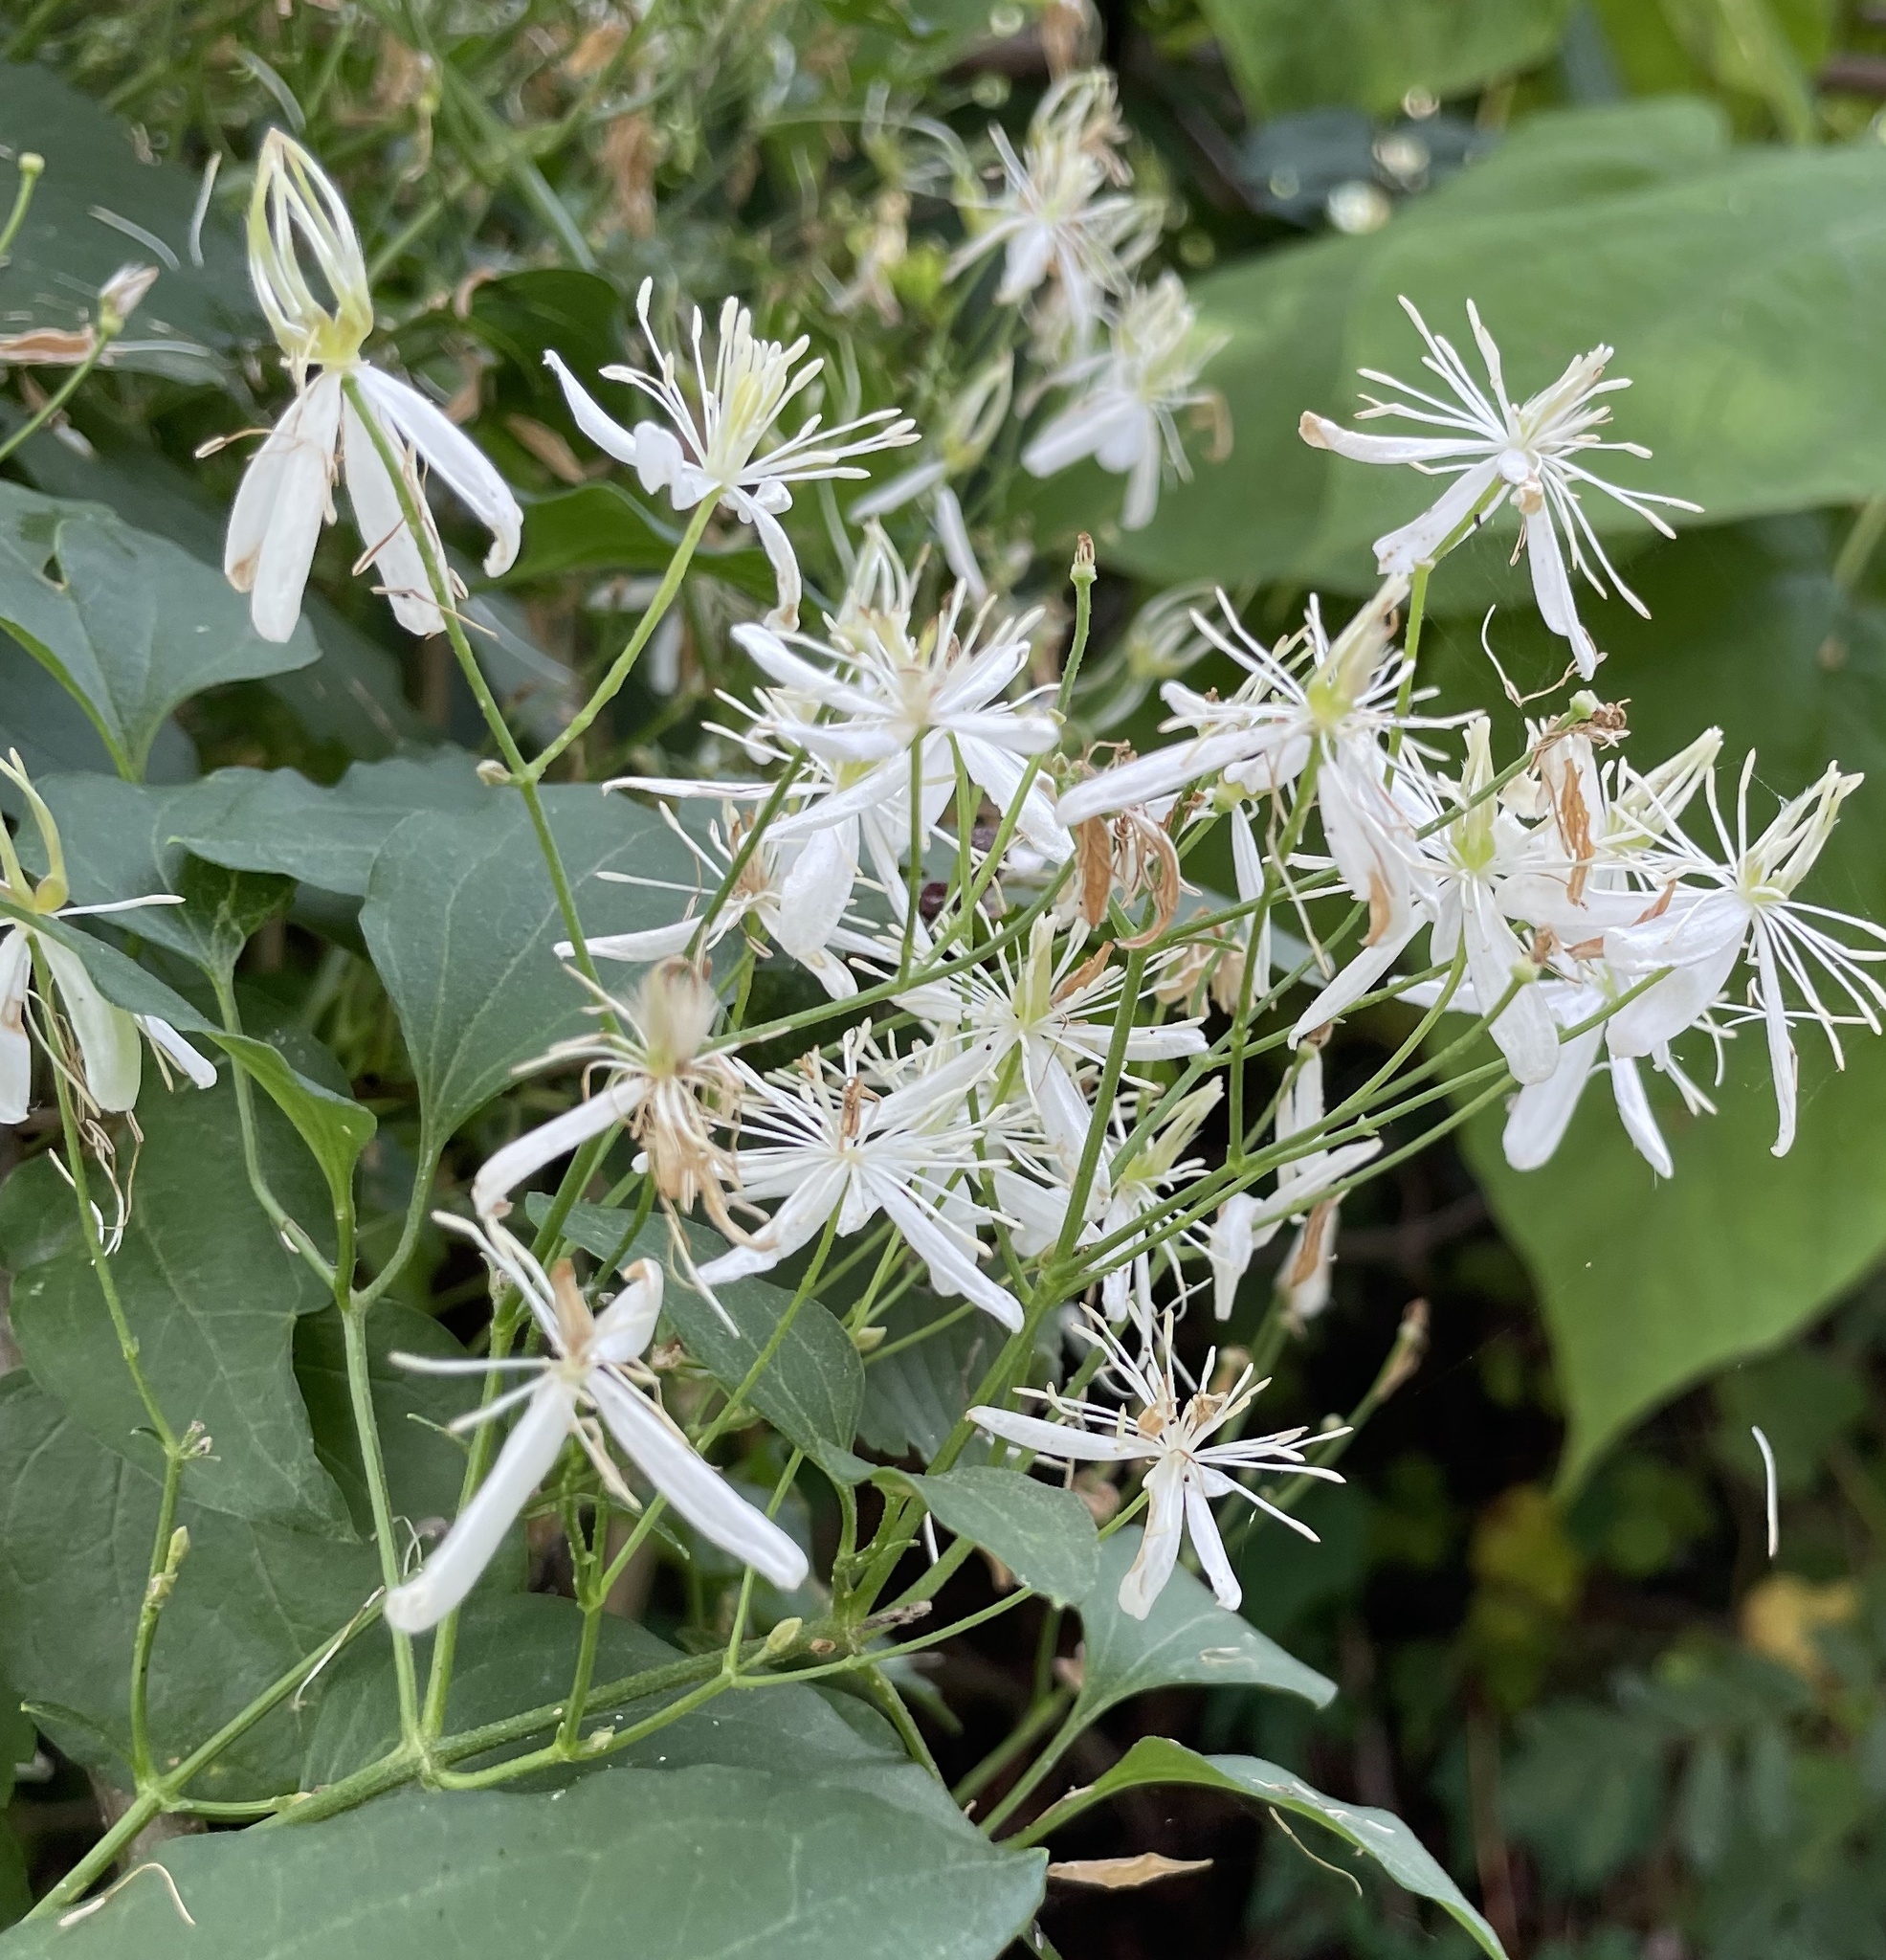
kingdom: Plantae
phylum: Tracheophyta
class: Magnoliopsida
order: Ranunculales
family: Ranunculaceae
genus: Clematis
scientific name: Clematis terniflora
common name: Sweet autumn clematis
